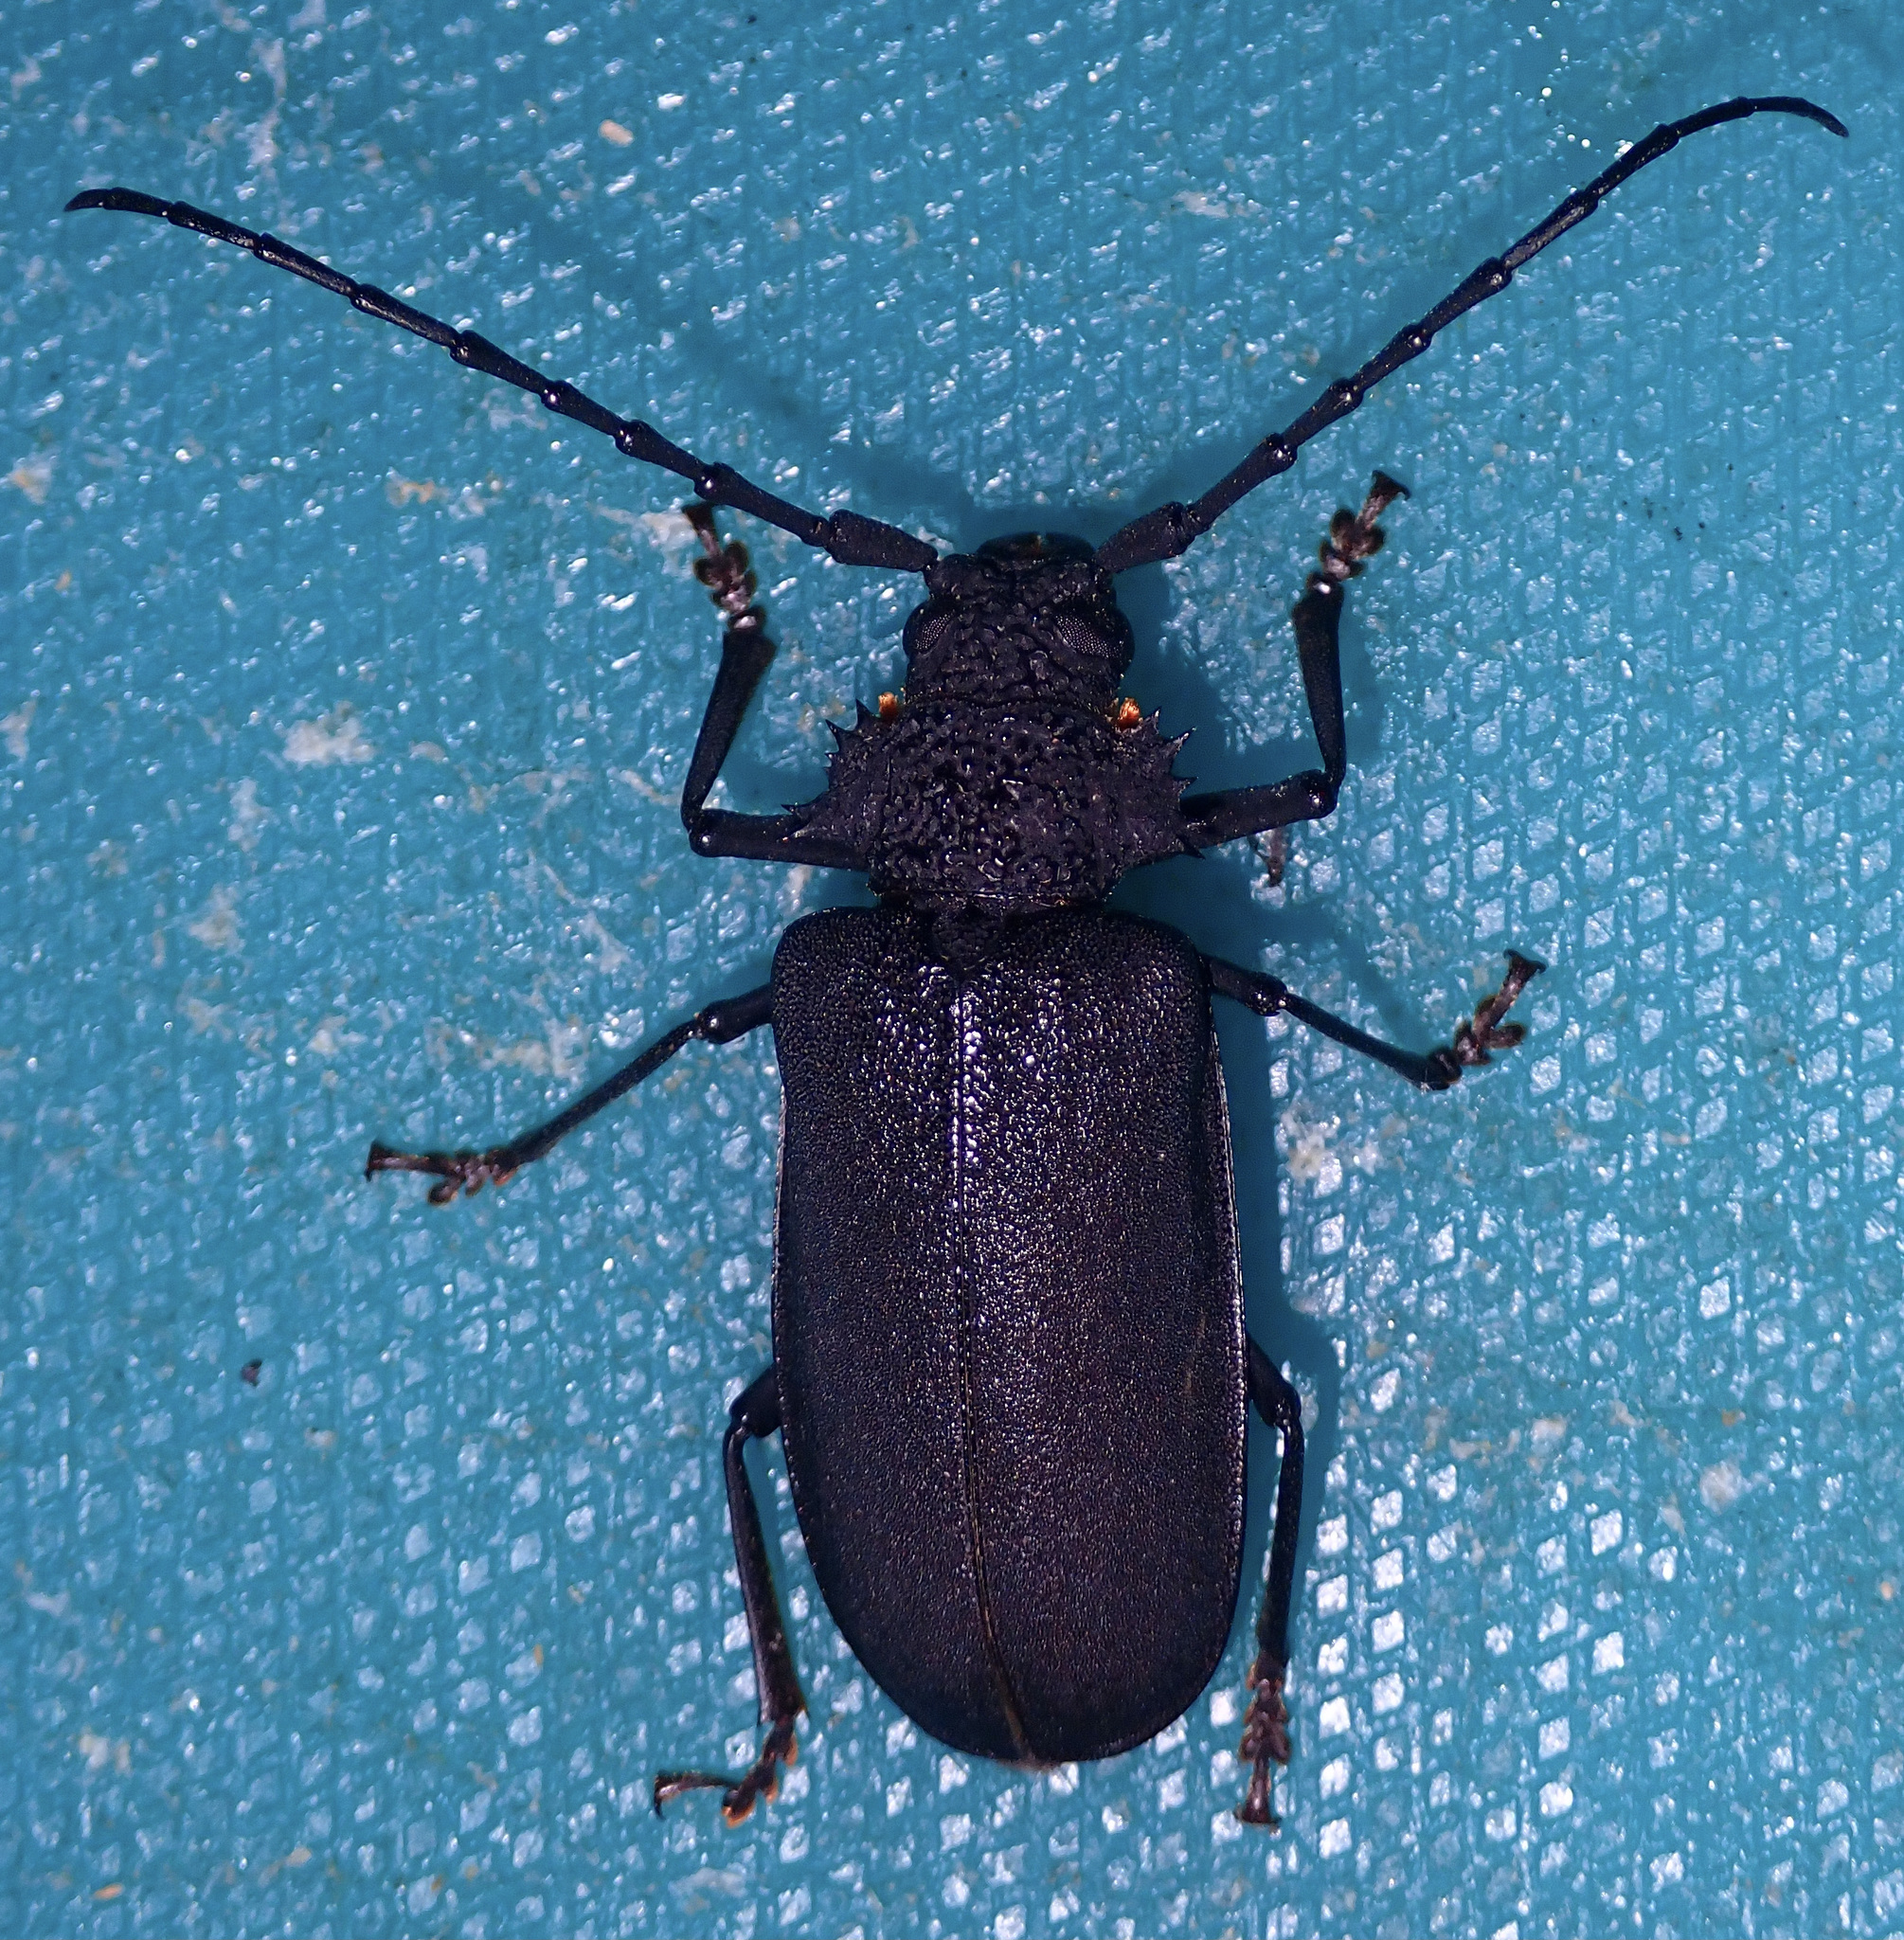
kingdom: Animalia
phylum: Arthropoda
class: Insecta
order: Coleoptera
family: Cerambycidae
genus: Pixodarus
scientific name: Pixodarus nyassae
